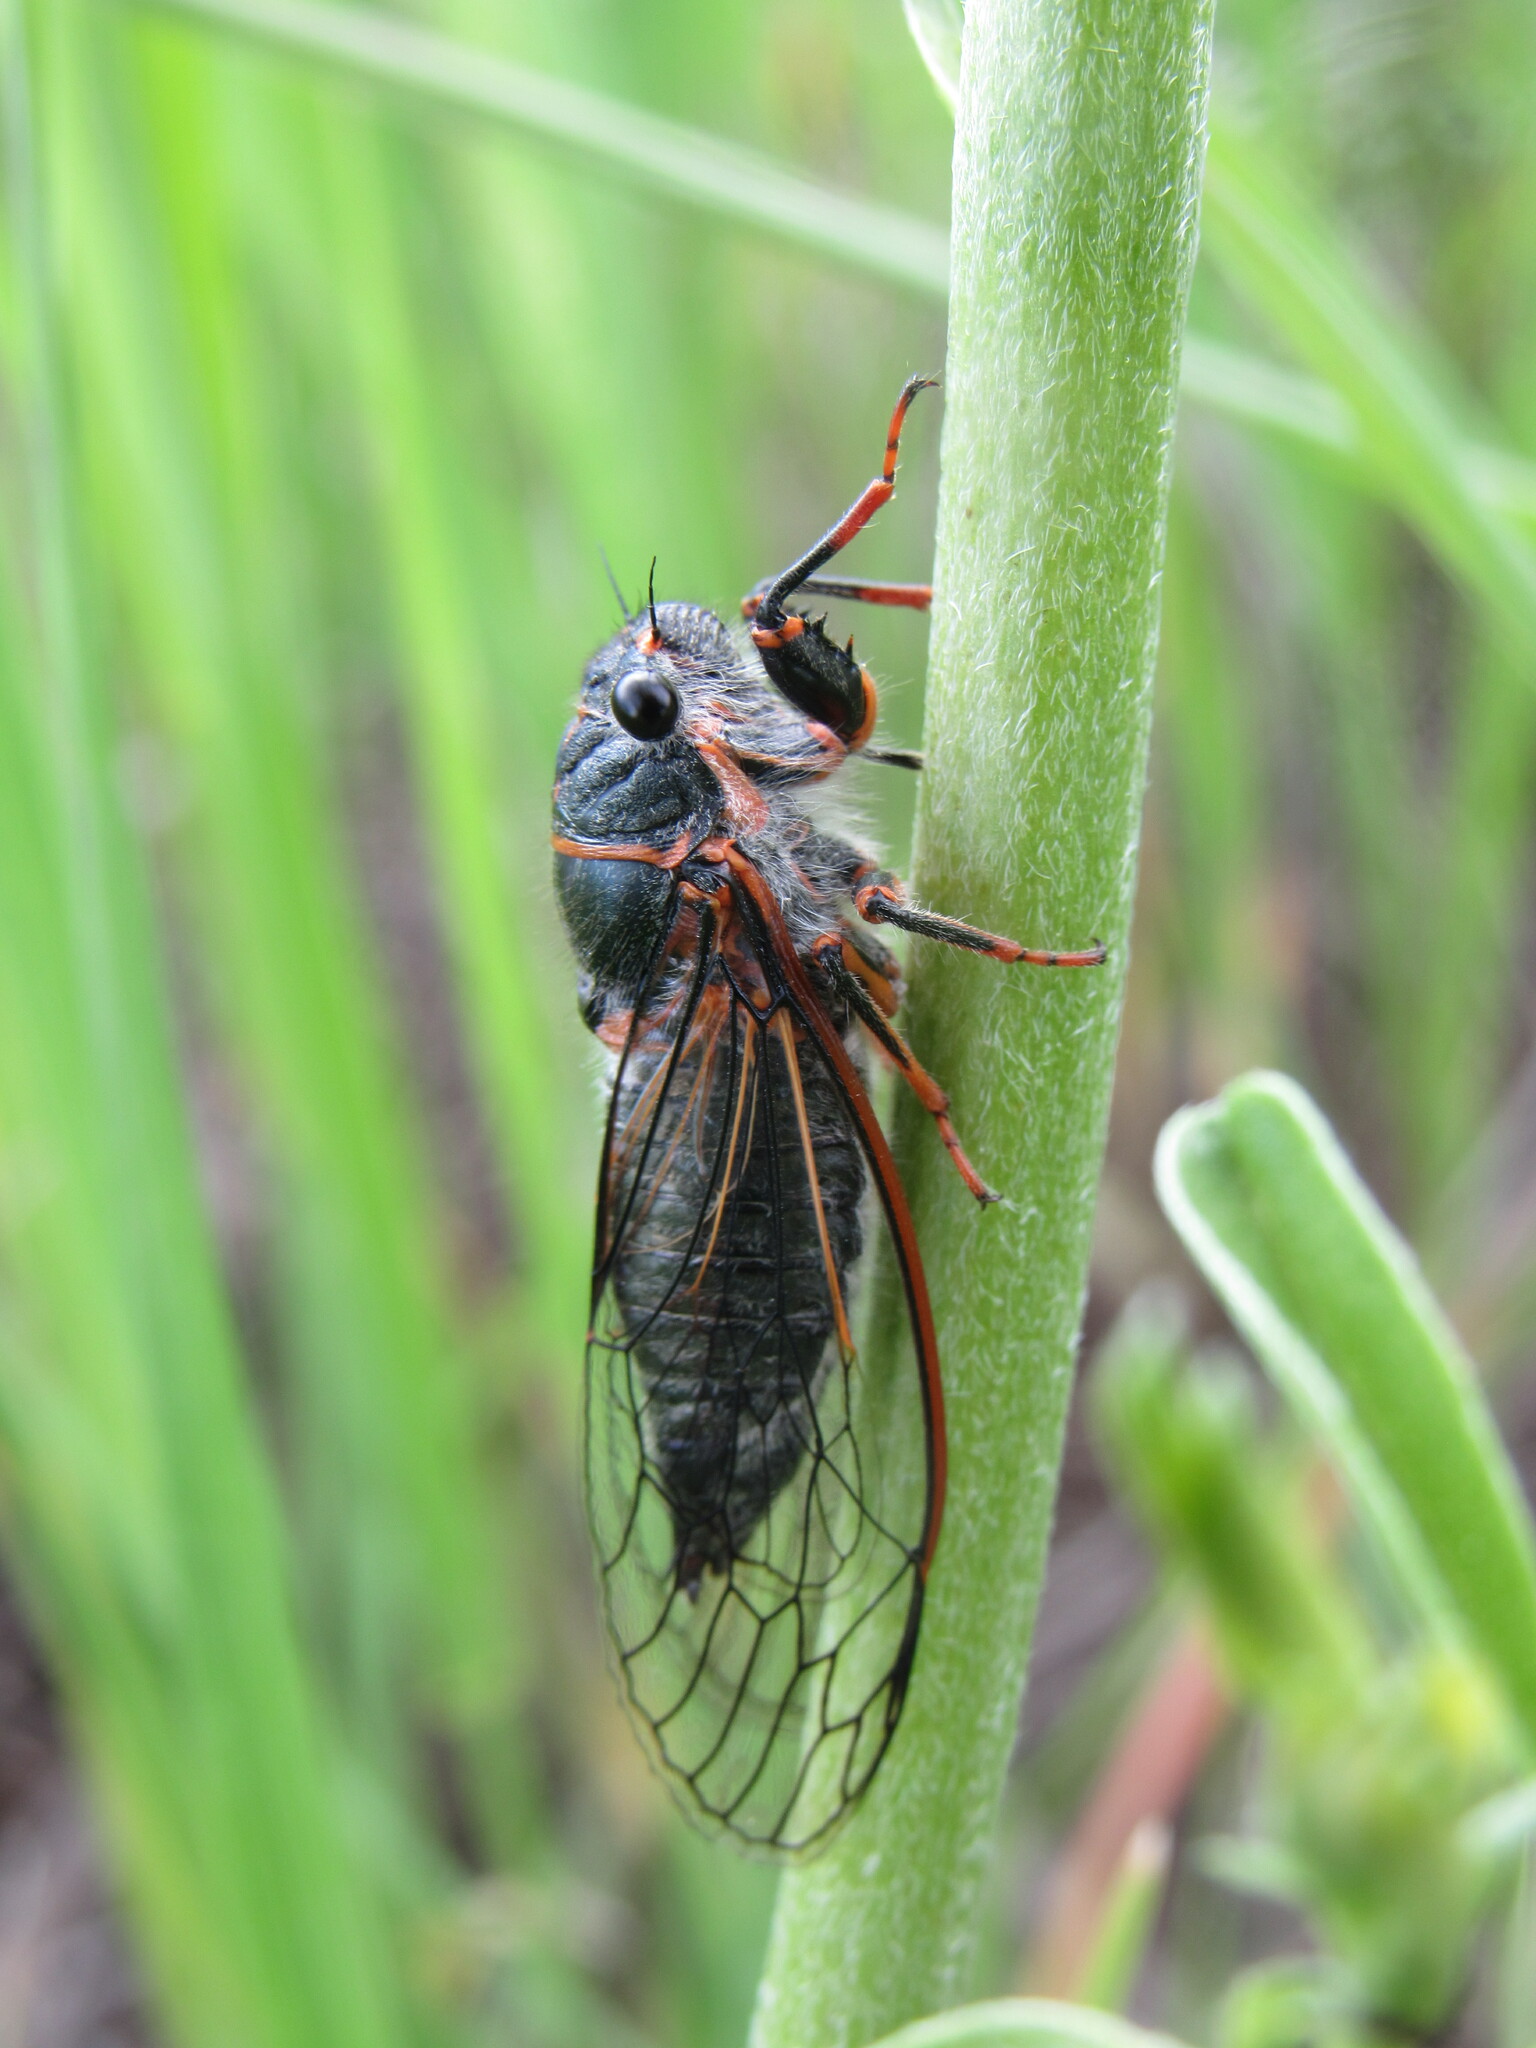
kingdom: Animalia
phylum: Arthropoda
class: Insecta
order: Hemiptera
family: Cicadidae
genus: Platypedia
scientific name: Platypedia putnami
